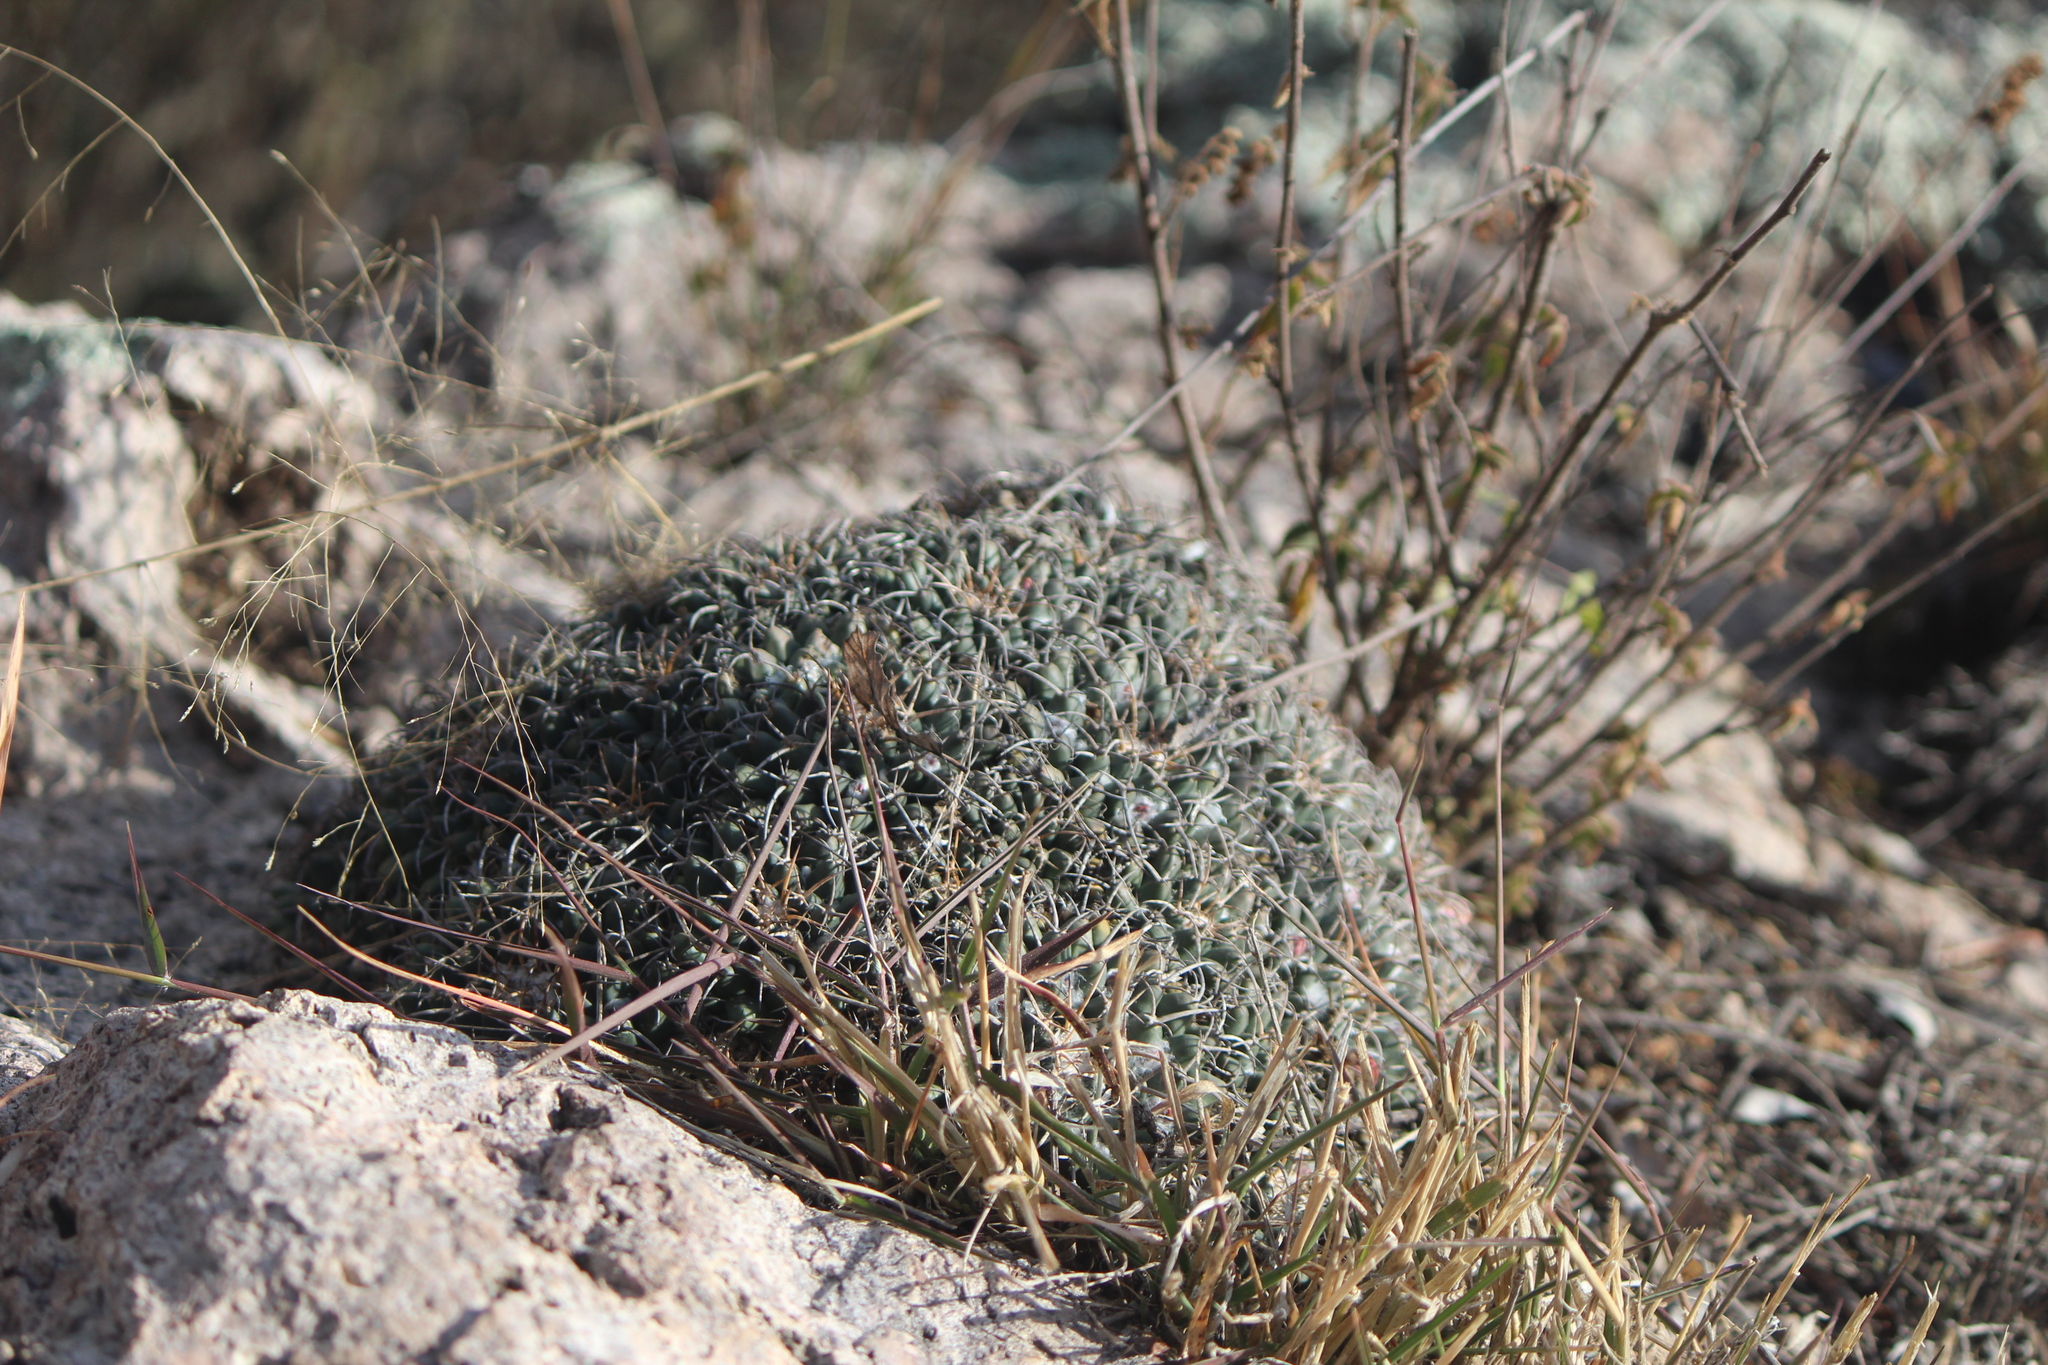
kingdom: Plantae
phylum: Tracheophyta
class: Magnoliopsida
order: Caryophyllales
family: Cactaceae
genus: Mammillaria
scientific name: Mammillaria magnimamma
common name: Mexican pincushion
